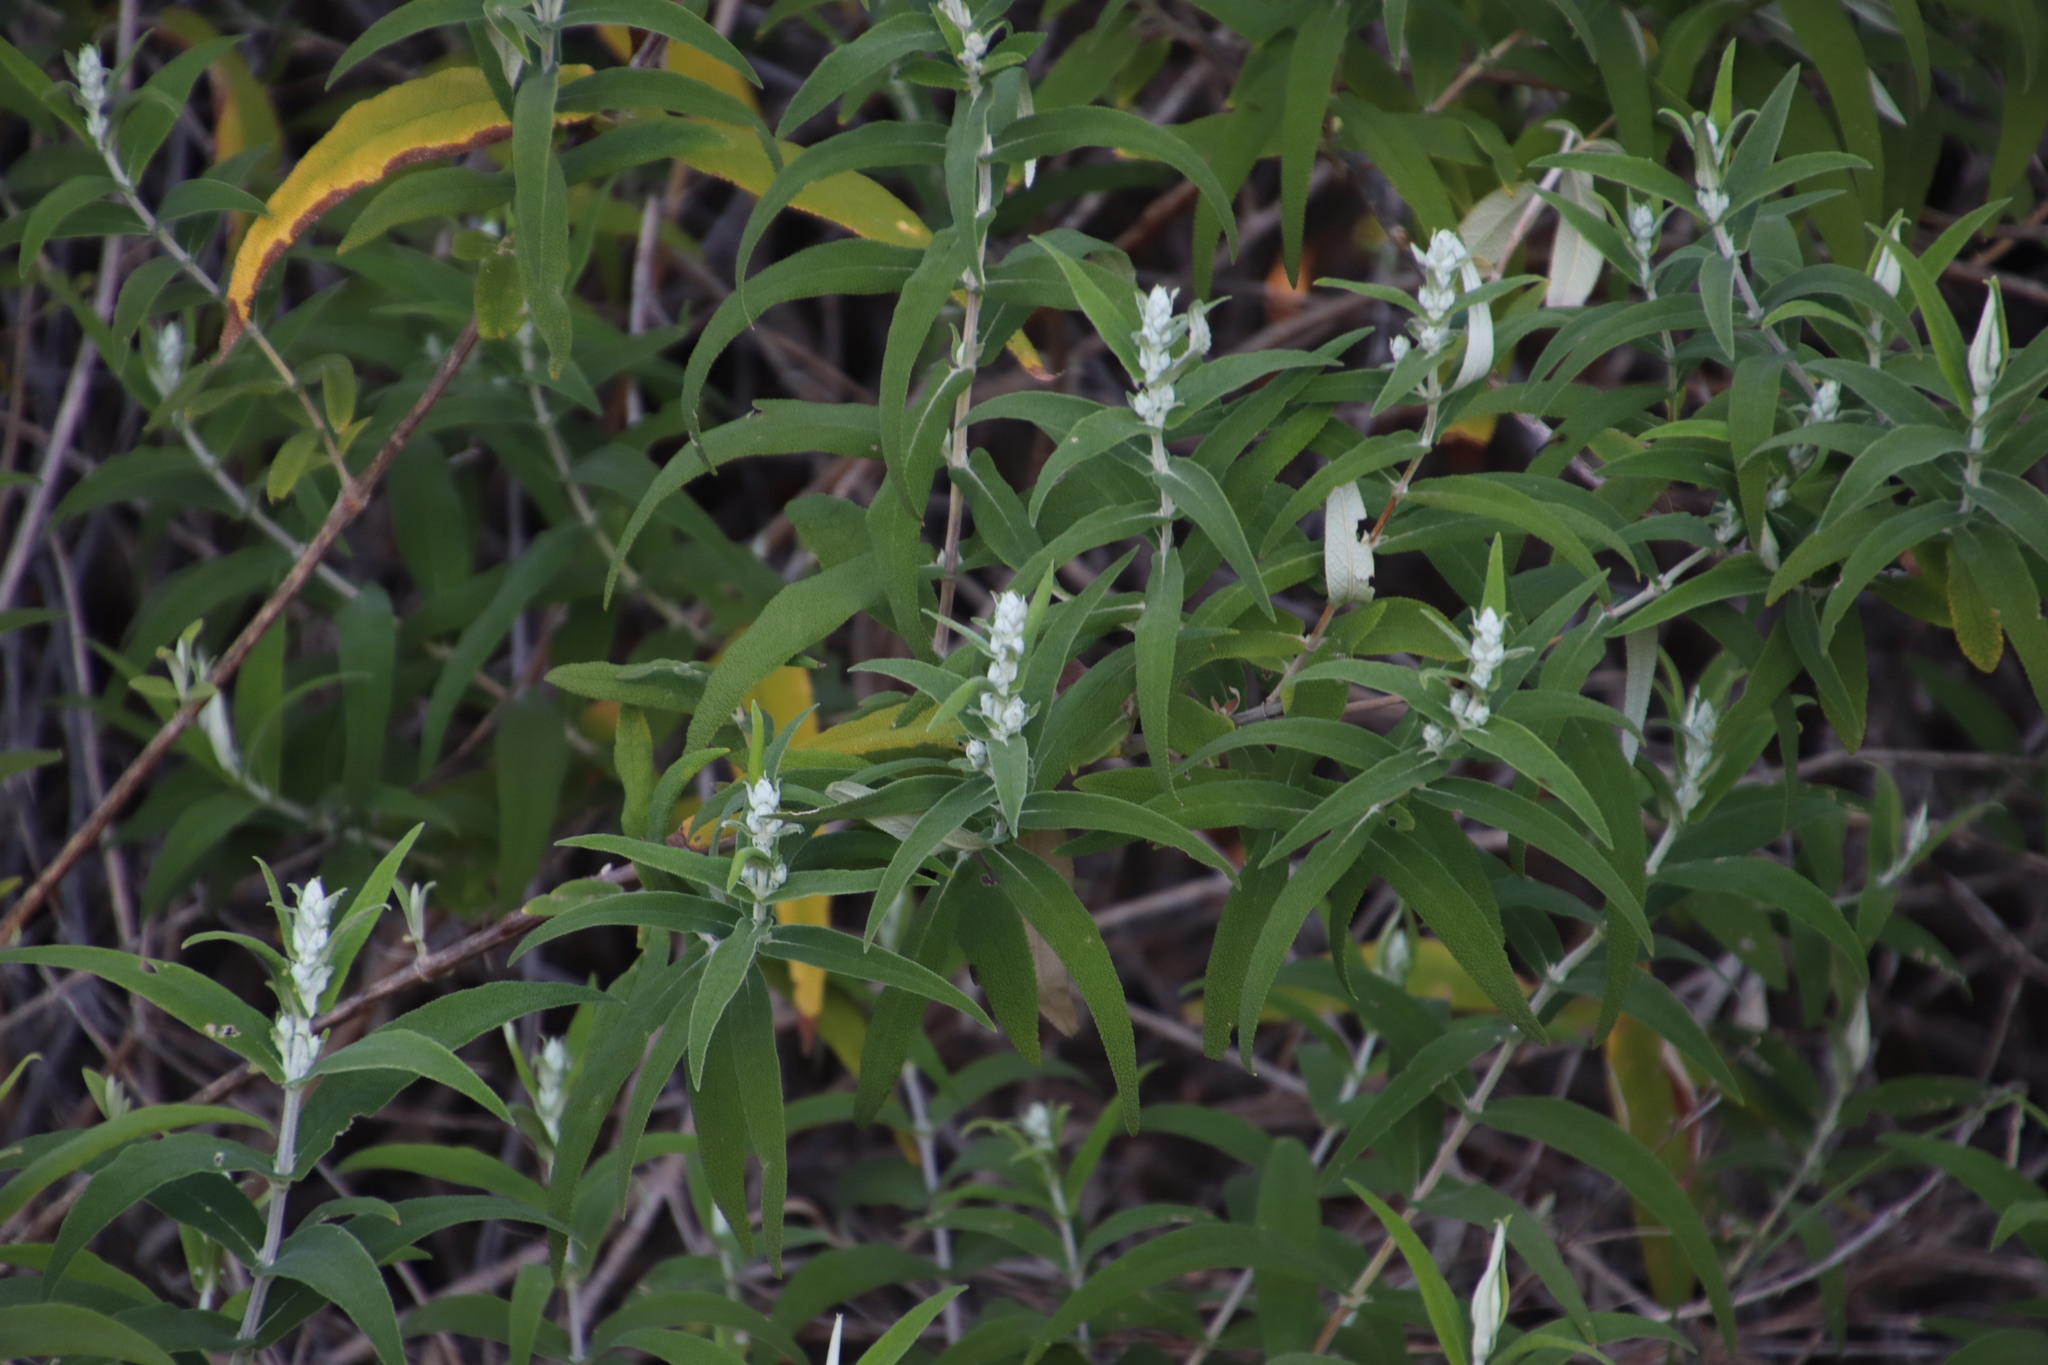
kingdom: Plantae
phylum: Tracheophyta
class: Magnoliopsida
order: Lamiales
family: Scrophulariaceae
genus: Buddleja
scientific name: Buddleja salviifolia
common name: Sagewood
